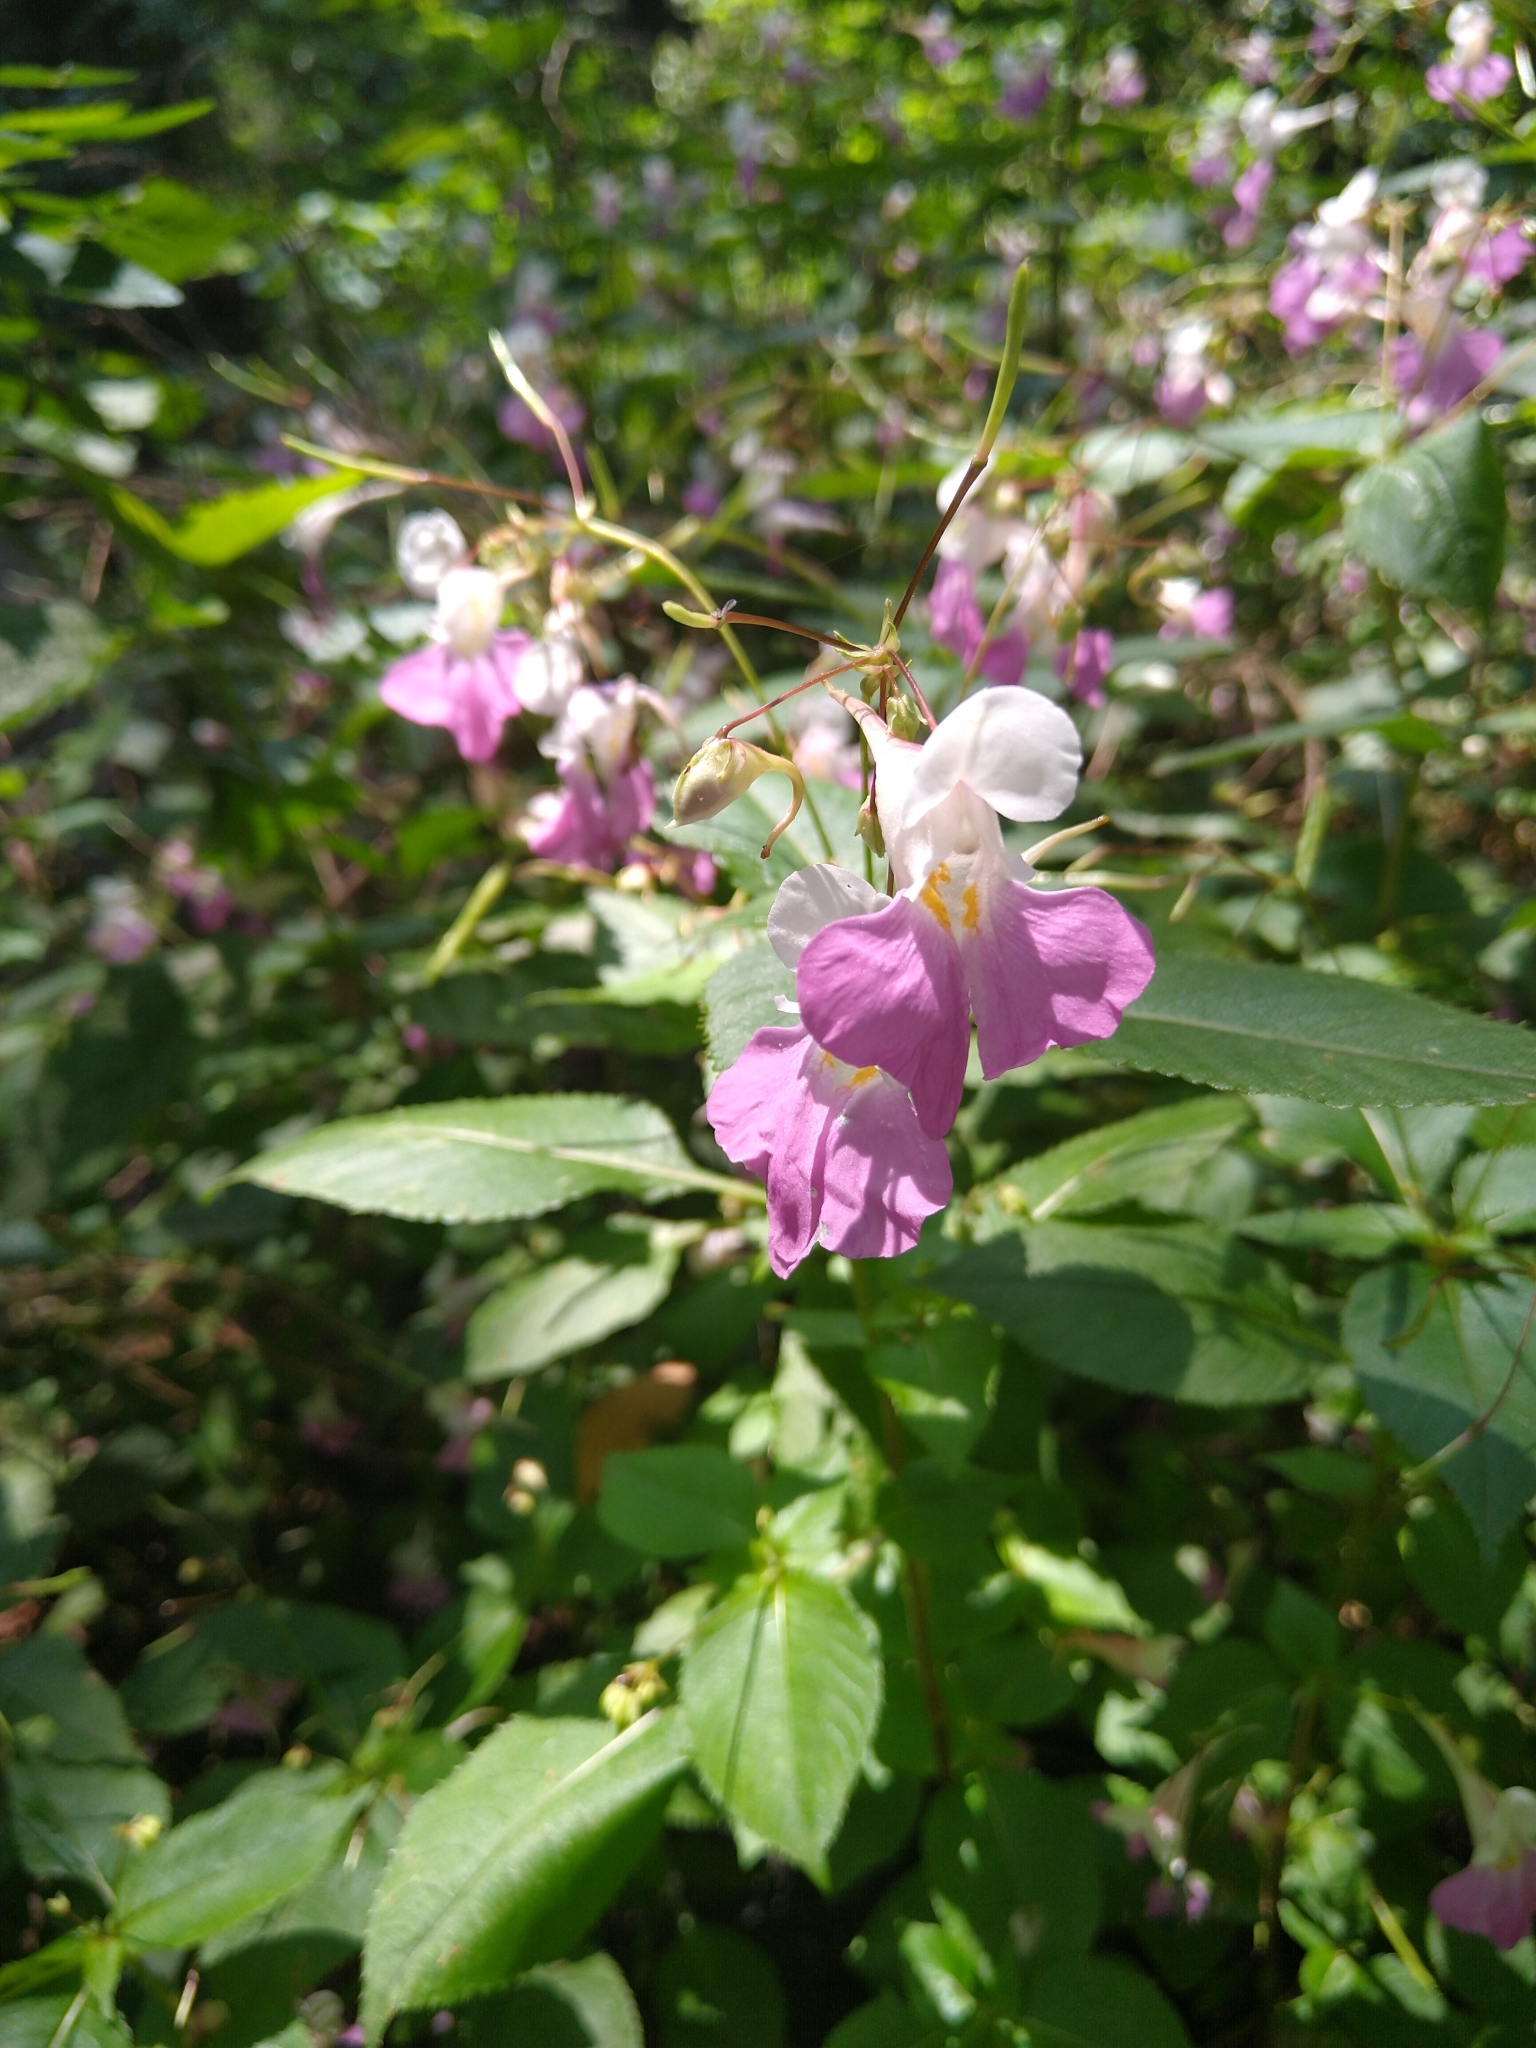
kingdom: Plantae
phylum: Tracheophyta
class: Magnoliopsida
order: Ericales
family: Balsaminaceae
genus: Impatiens
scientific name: Impatiens balfourii
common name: Balfour's touch-me-not
